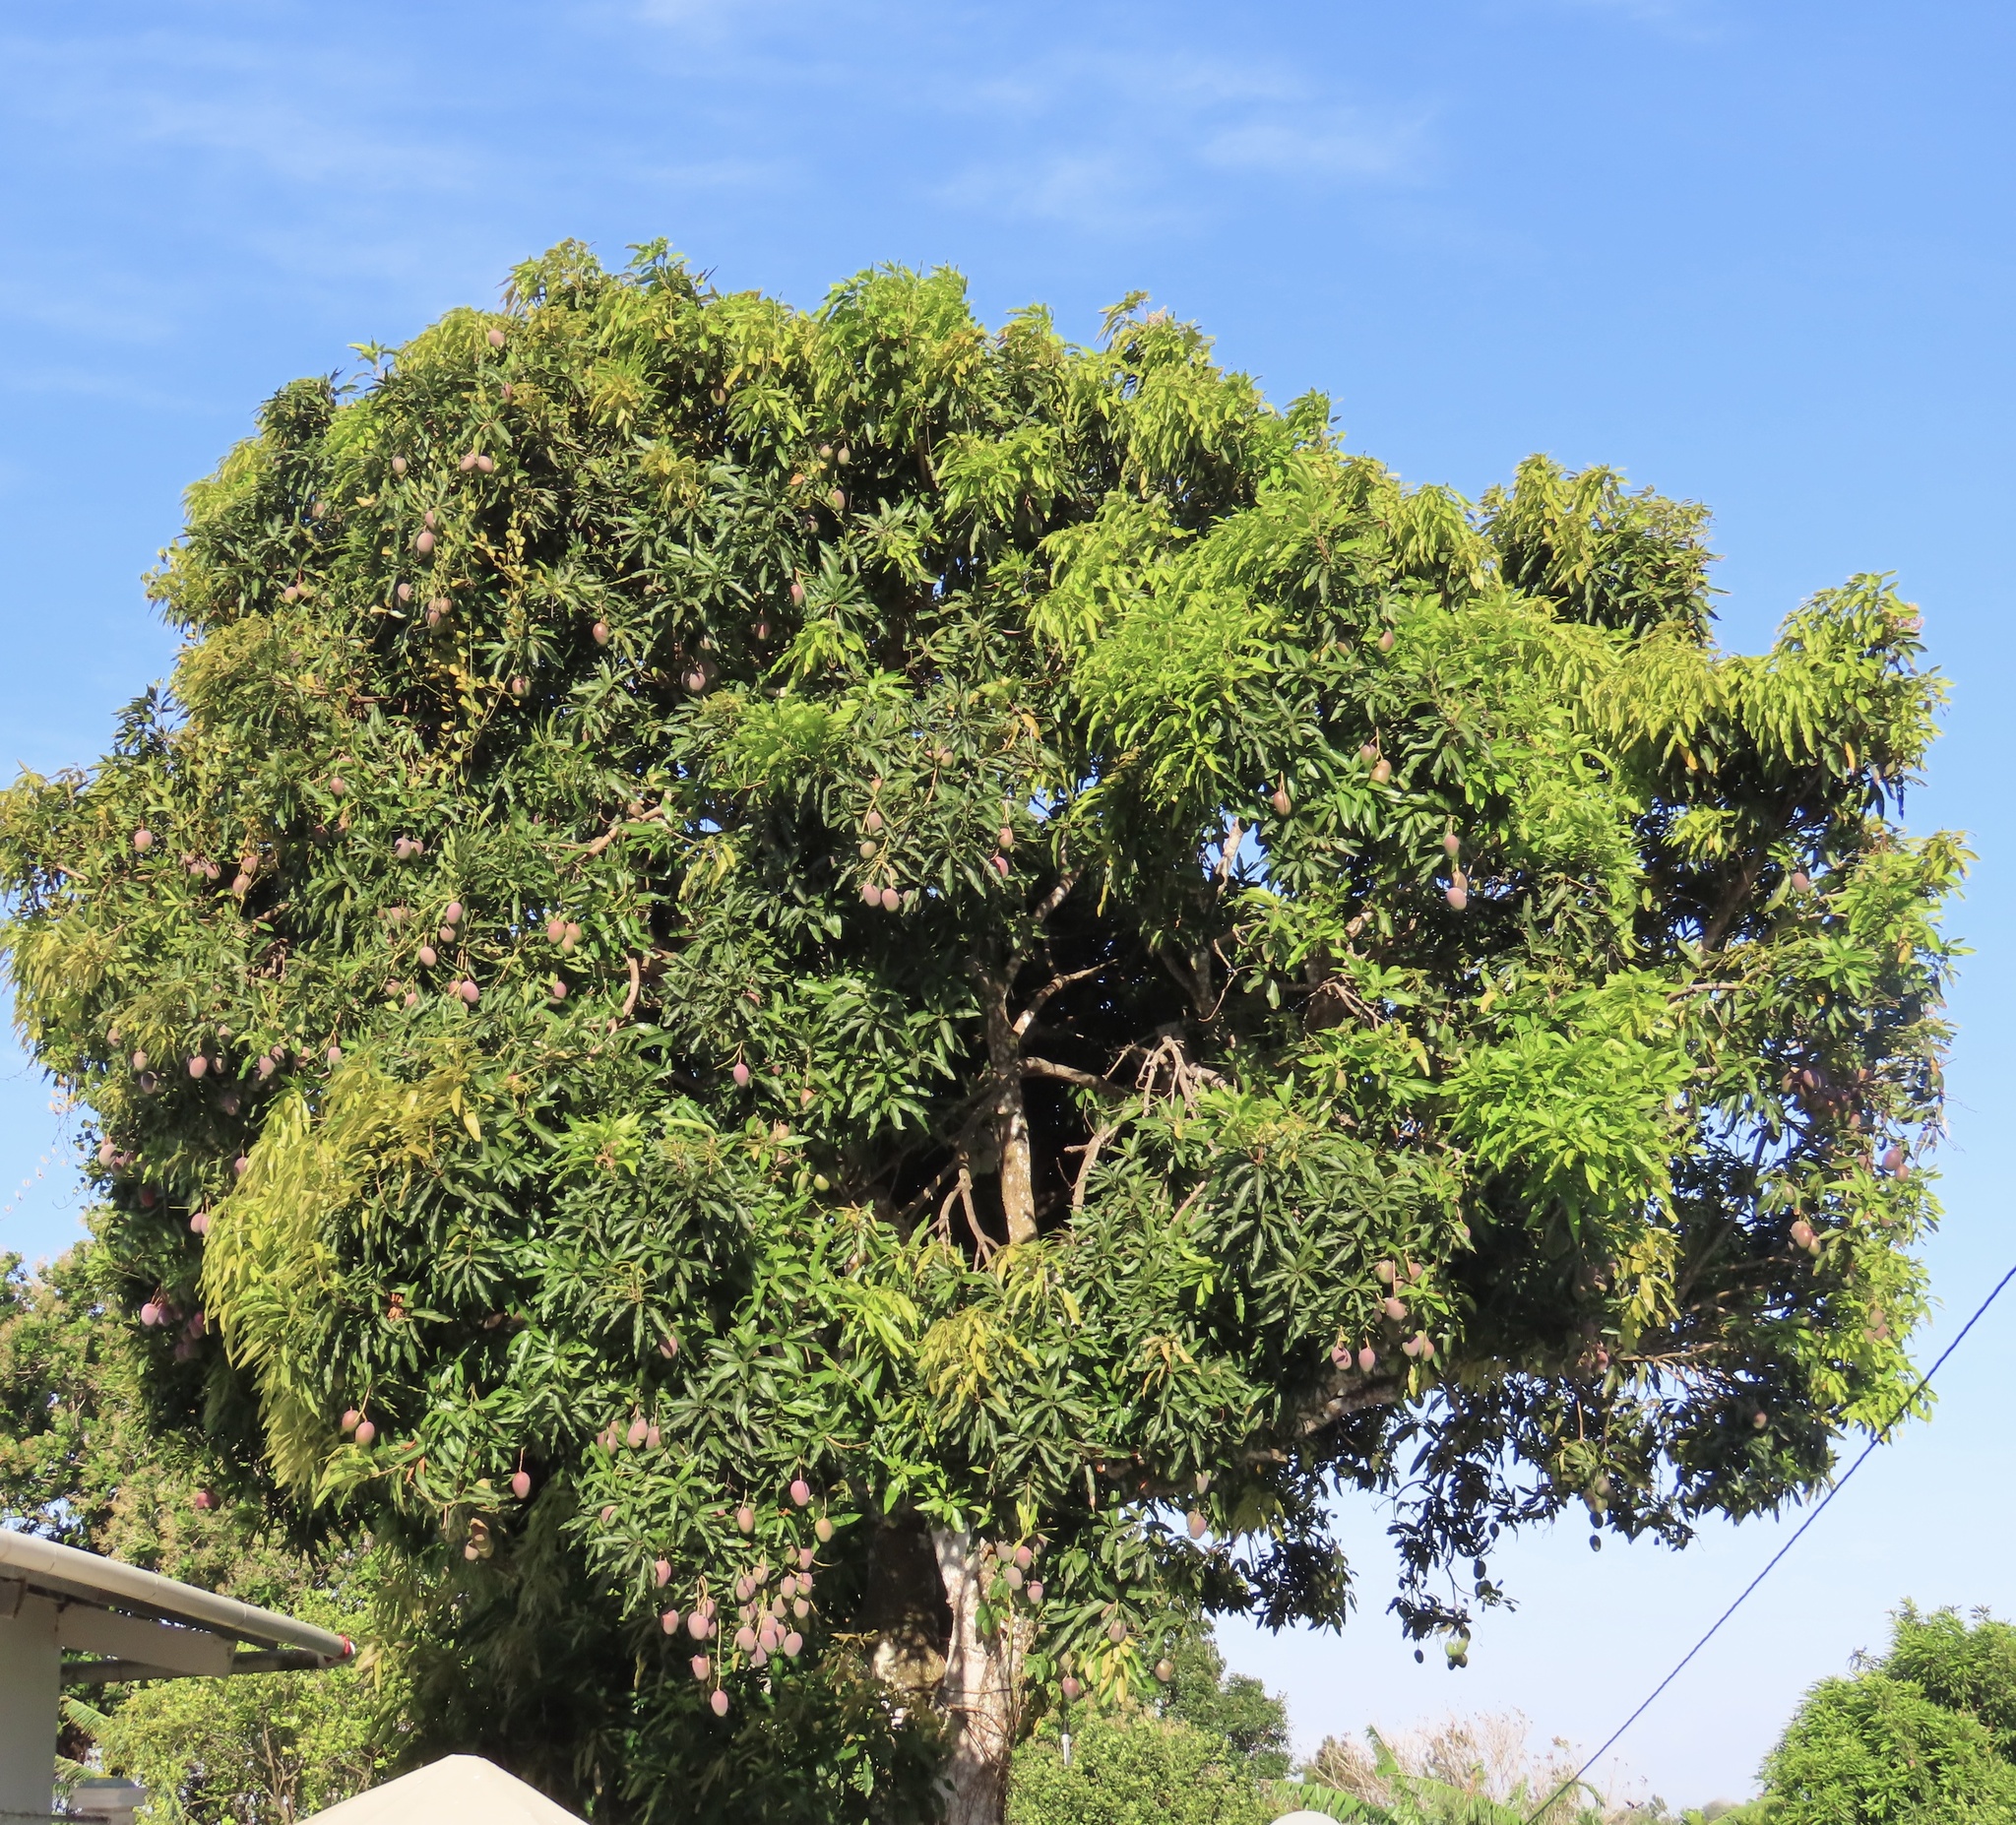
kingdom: Plantae
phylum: Tracheophyta
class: Magnoliopsida
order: Sapindales
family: Anacardiaceae
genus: Mangifera
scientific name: Mangifera indica
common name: Mango
